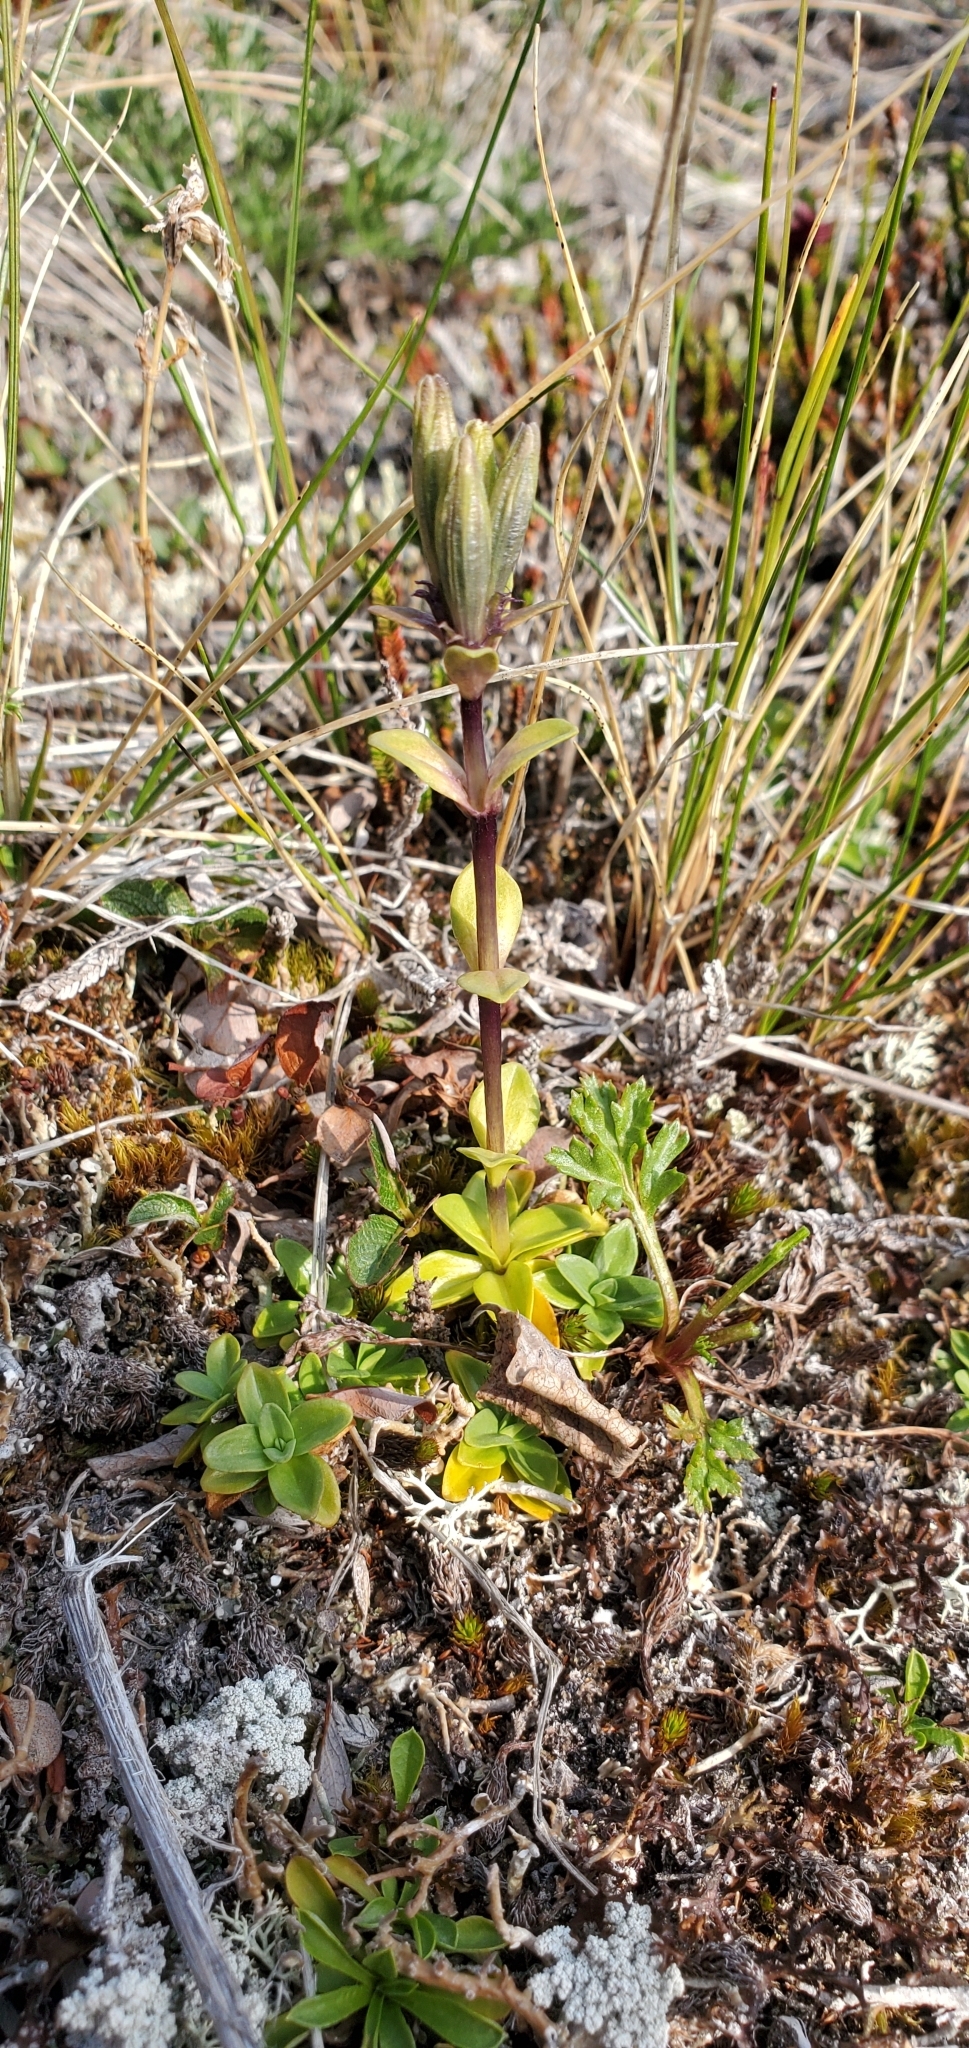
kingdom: Plantae
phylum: Tracheophyta
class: Magnoliopsida
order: Gentianales
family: Gentianaceae
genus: Gentiana
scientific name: Gentiana glauca
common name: Alpine gentian
